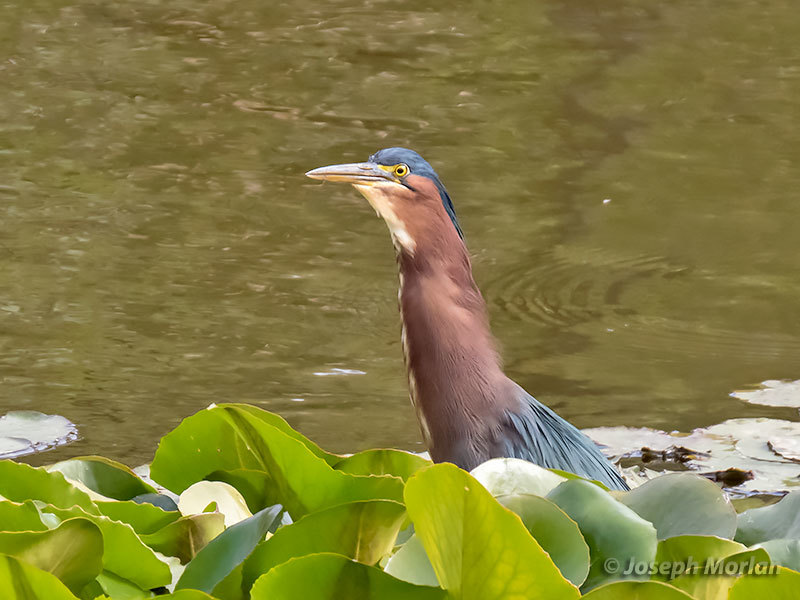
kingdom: Animalia
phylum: Chordata
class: Aves
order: Pelecaniformes
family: Ardeidae
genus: Butorides
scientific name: Butorides virescens
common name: Green heron
